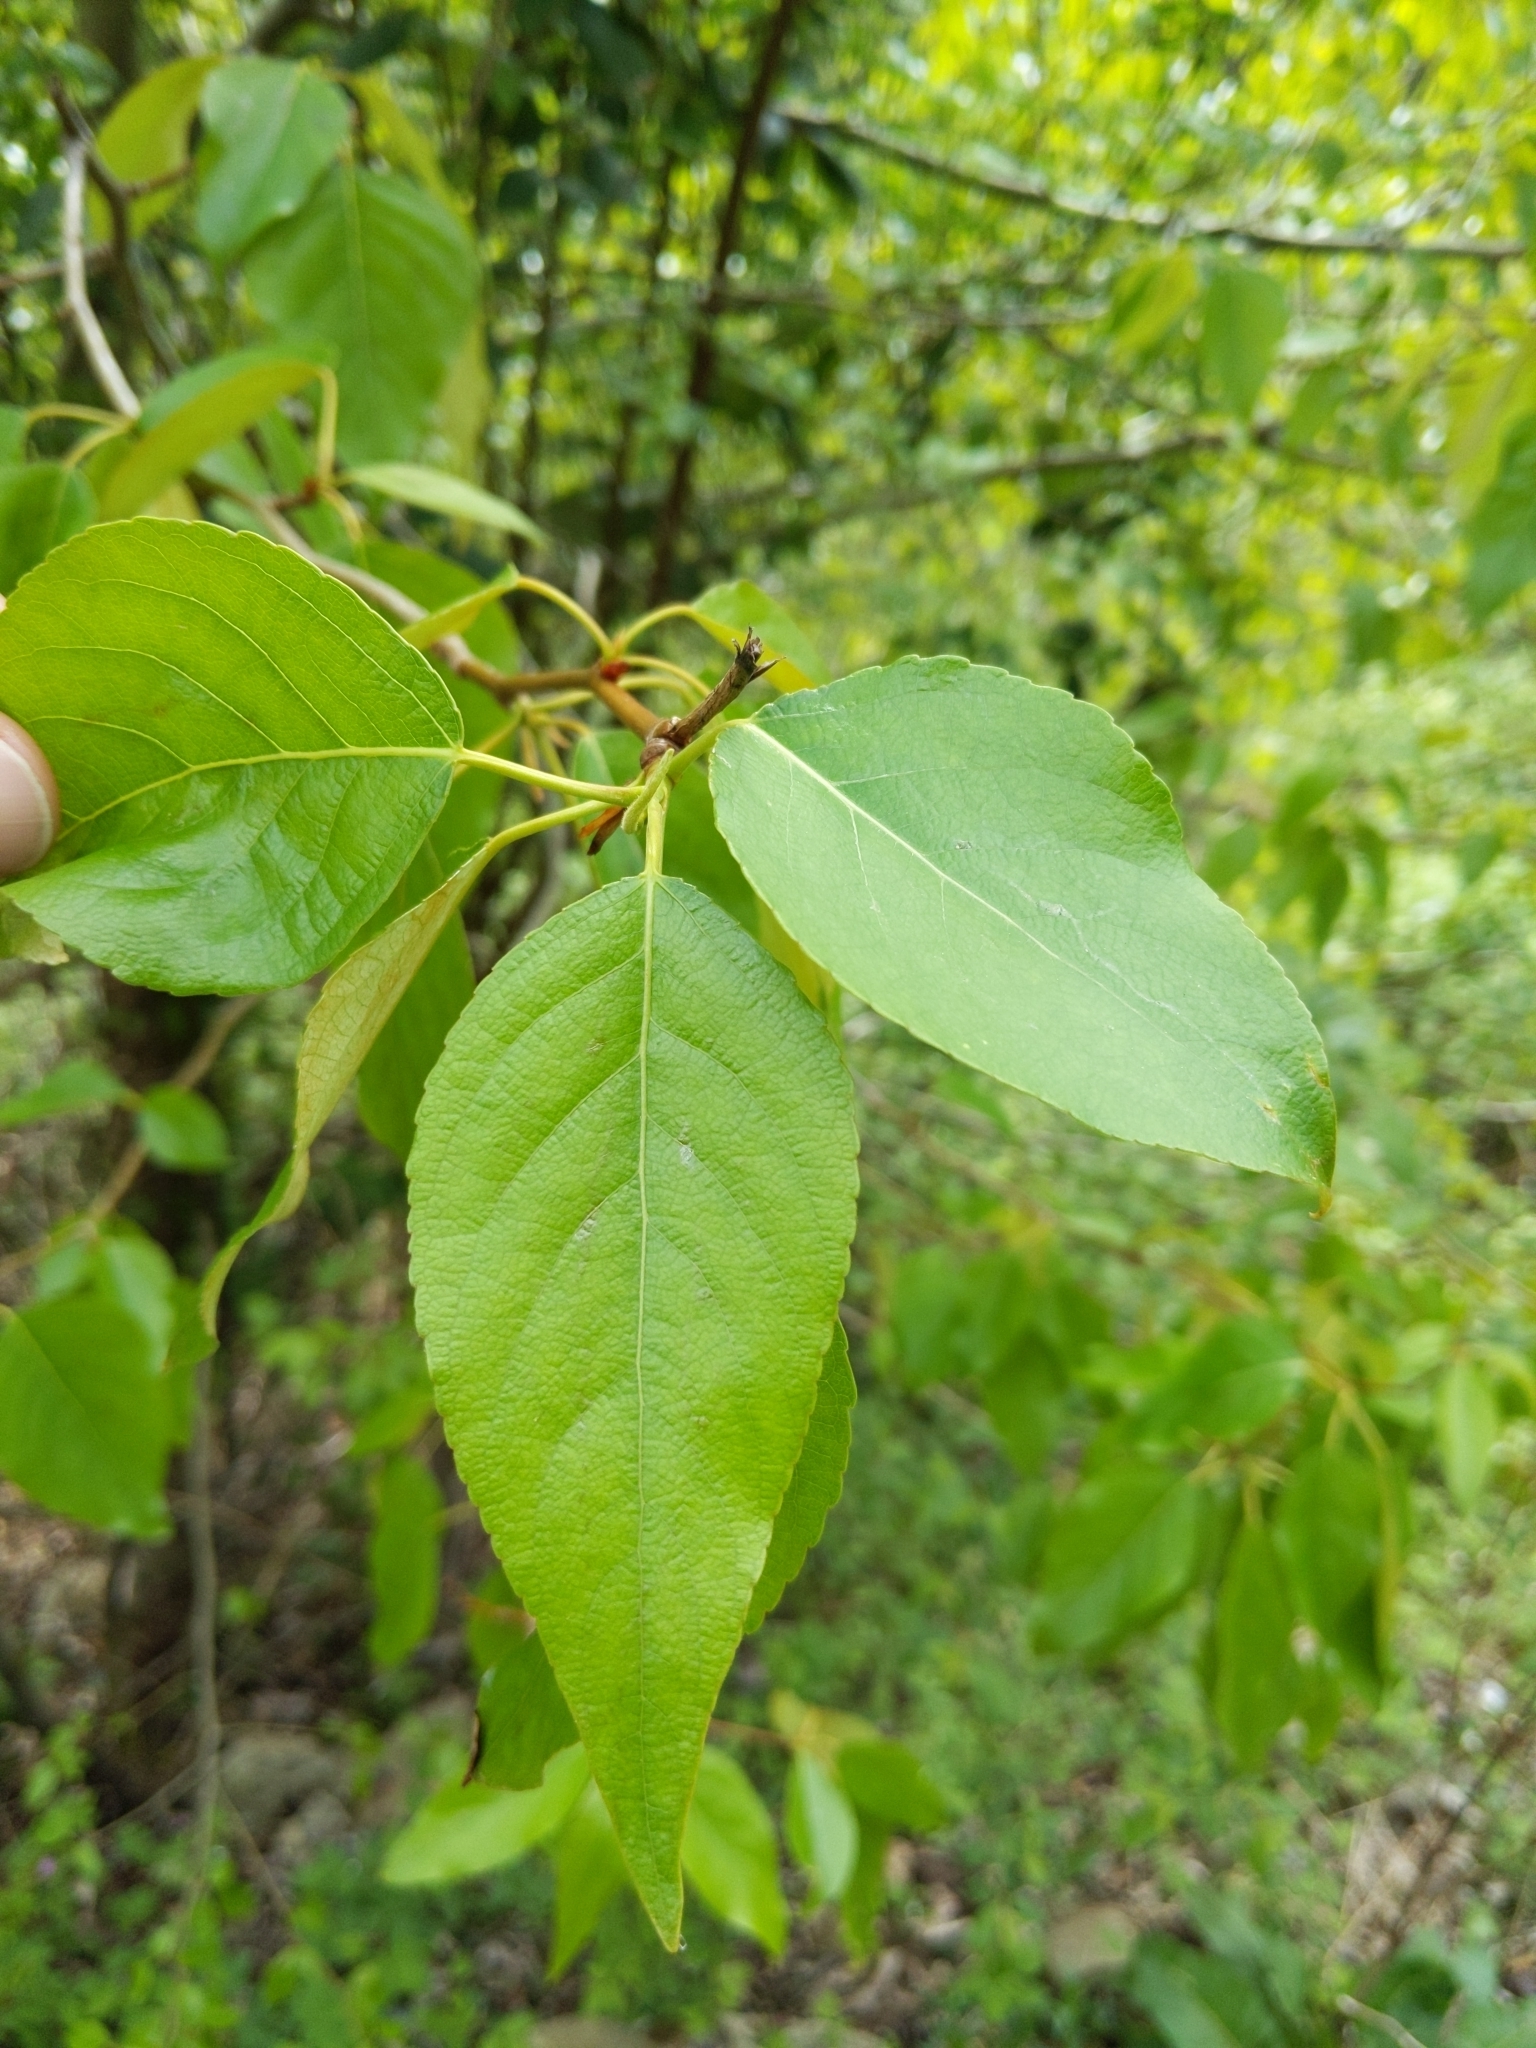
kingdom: Plantae
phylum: Tracheophyta
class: Magnoliopsida
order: Malpighiales
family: Salicaceae
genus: Populus
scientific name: Populus trichocarpa
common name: Black cottonwood
